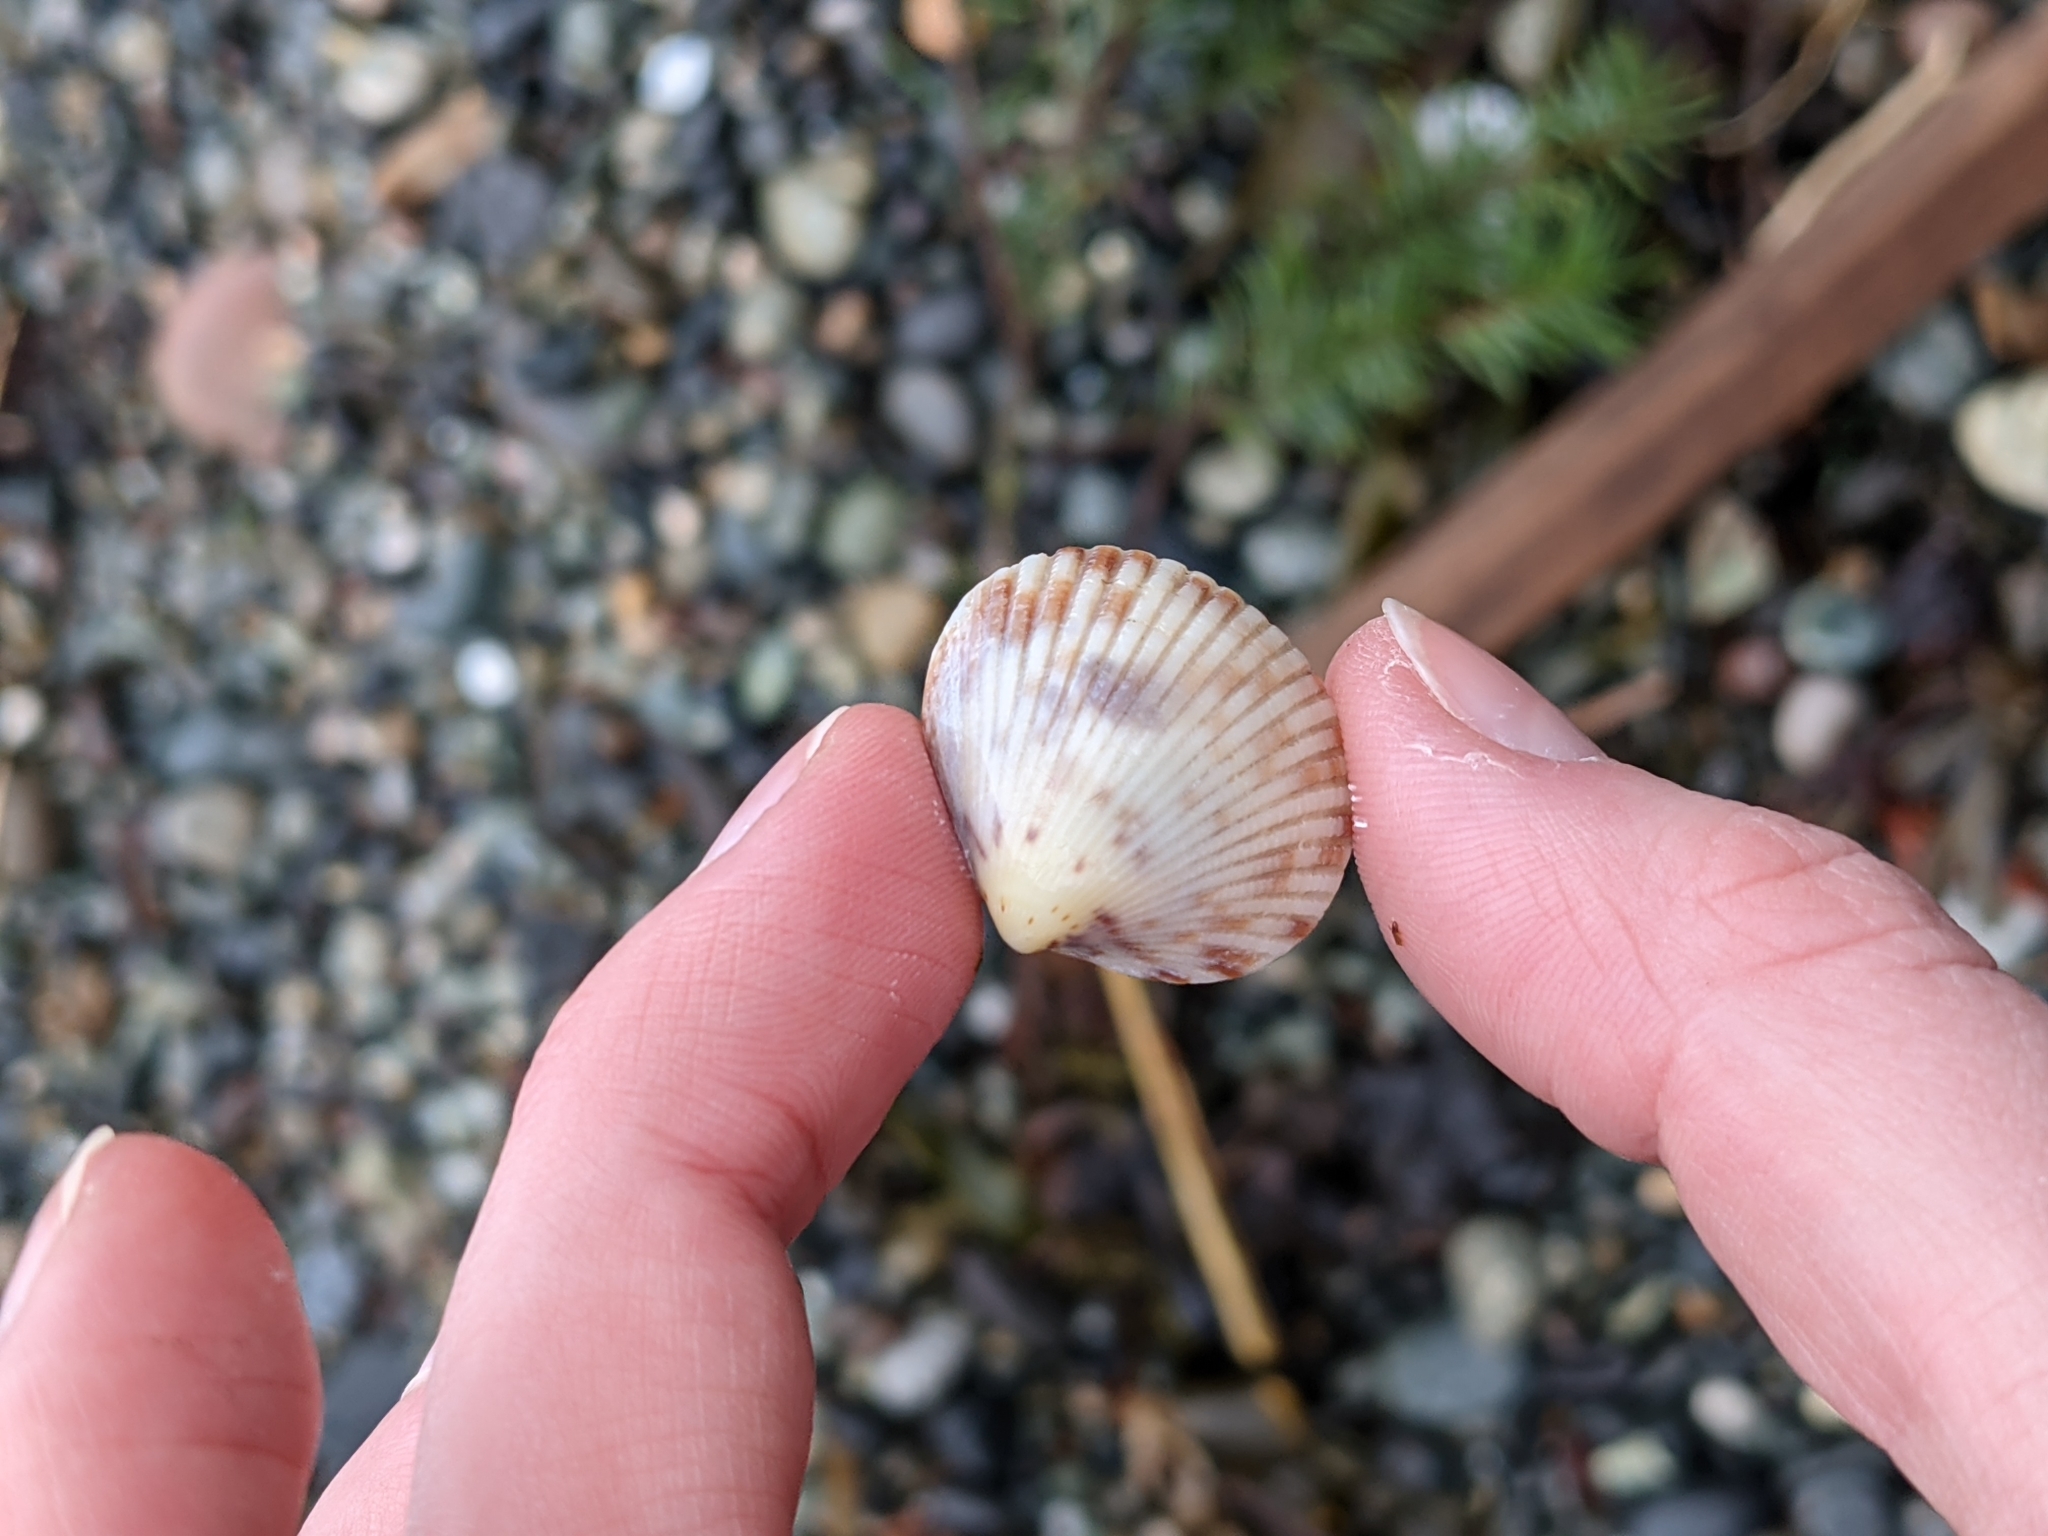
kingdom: Animalia
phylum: Mollusca
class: Bivalvia
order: Cardiida
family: Cardiidae
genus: Clinocardium
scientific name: Clinocardium nuttallii
